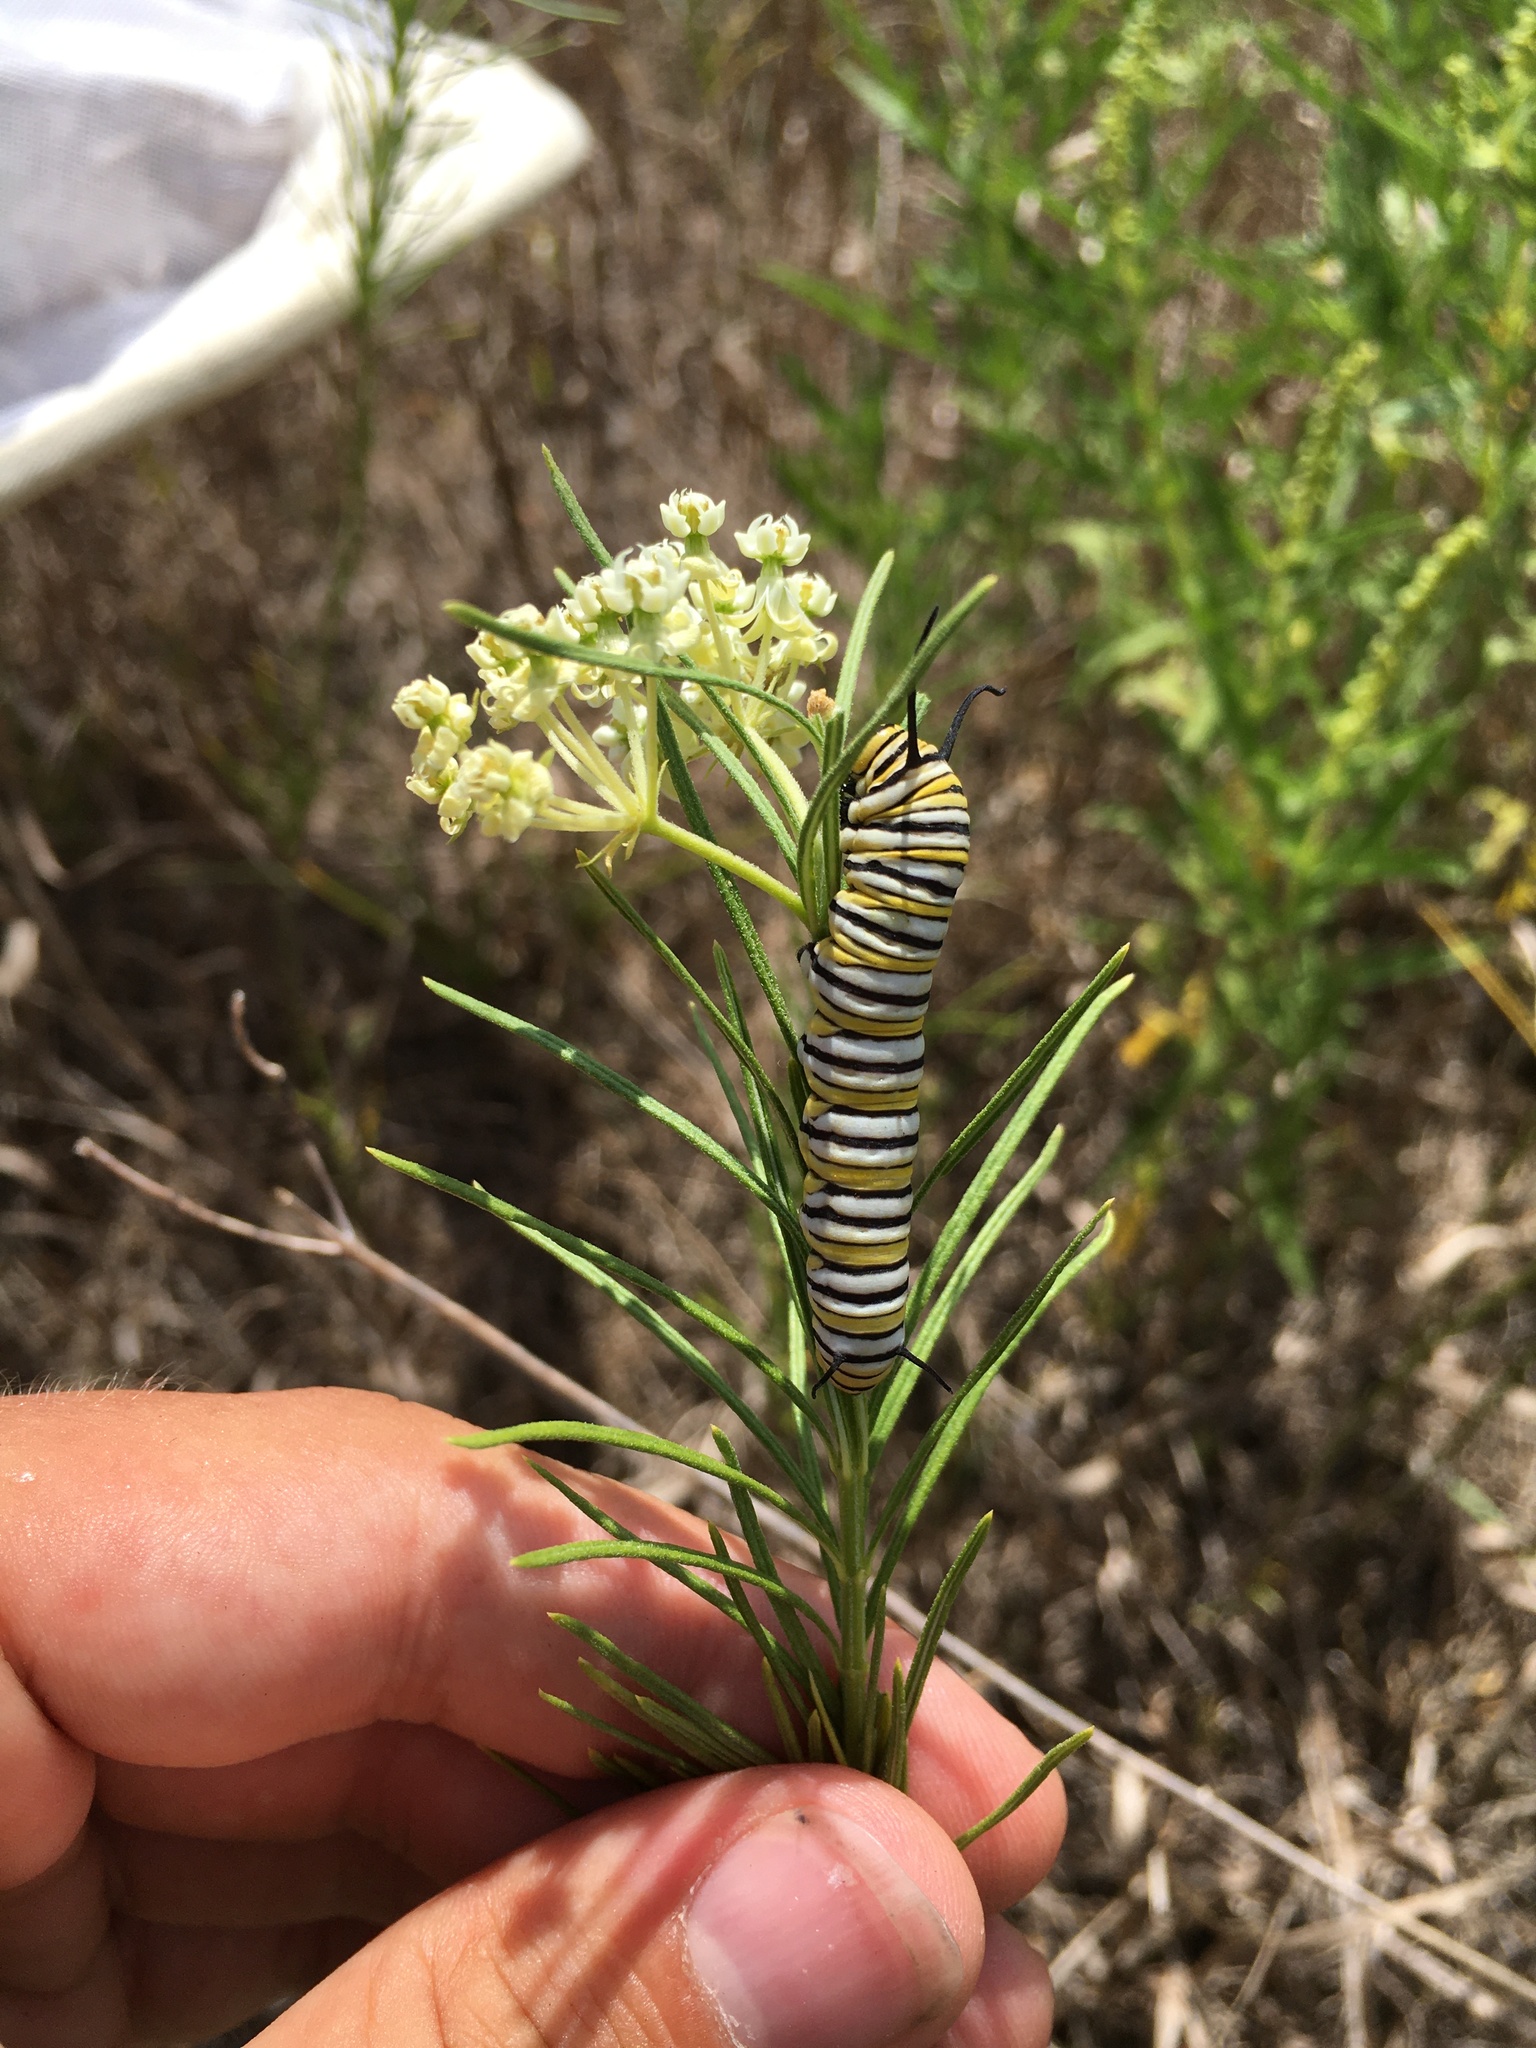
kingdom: Animalia
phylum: Arthropoda
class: Insecta
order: Lepidoptera
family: Nymphalidae
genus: Danaus
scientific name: Danaus plexippus
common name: Monarch
